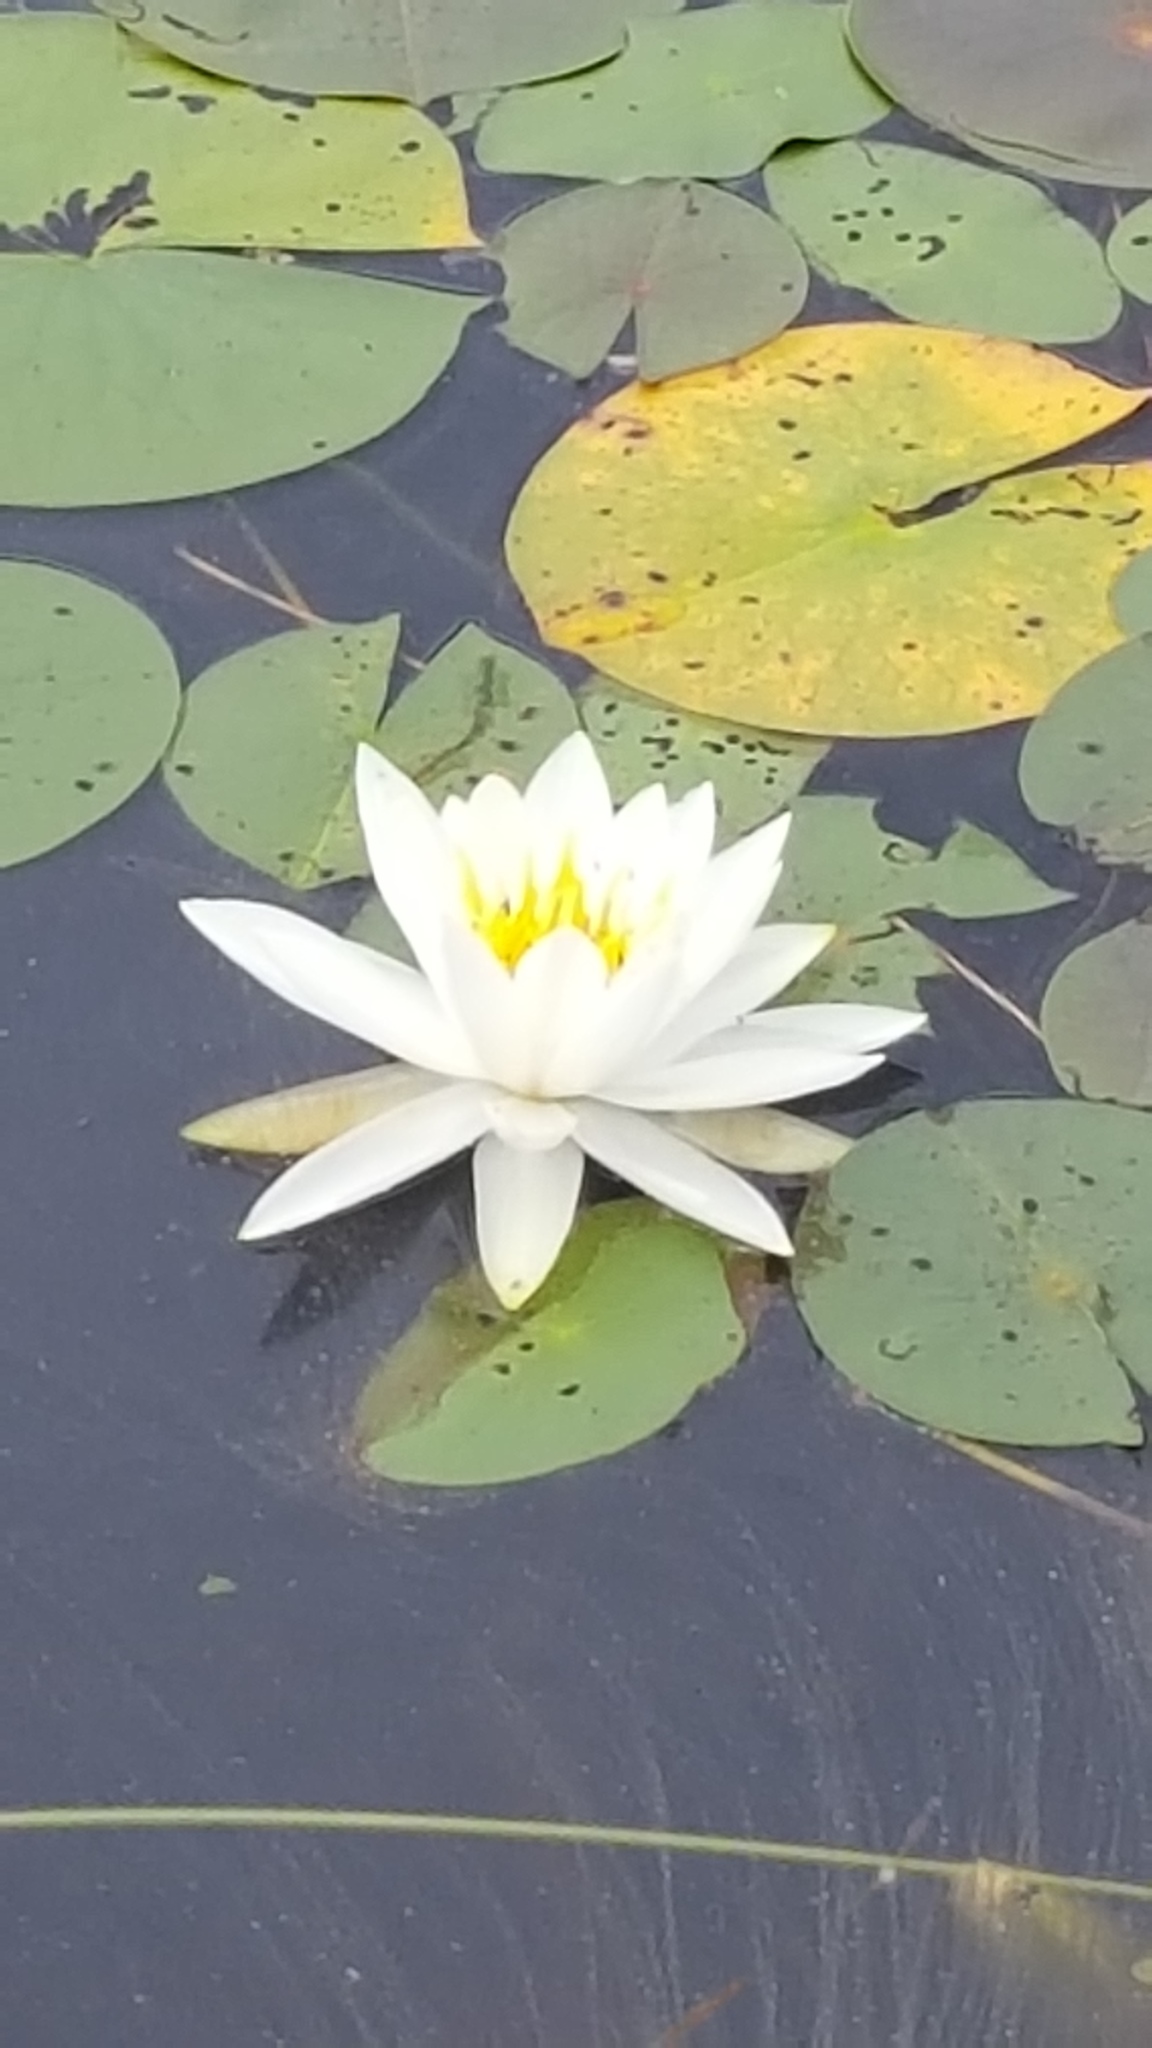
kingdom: Plantae
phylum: Tracheophyta
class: Magnoliopsida
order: Nymphaeales
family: Nymphaeaceae
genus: Nymphaea
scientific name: Nymphaea odorata
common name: Fragrant water-lily
